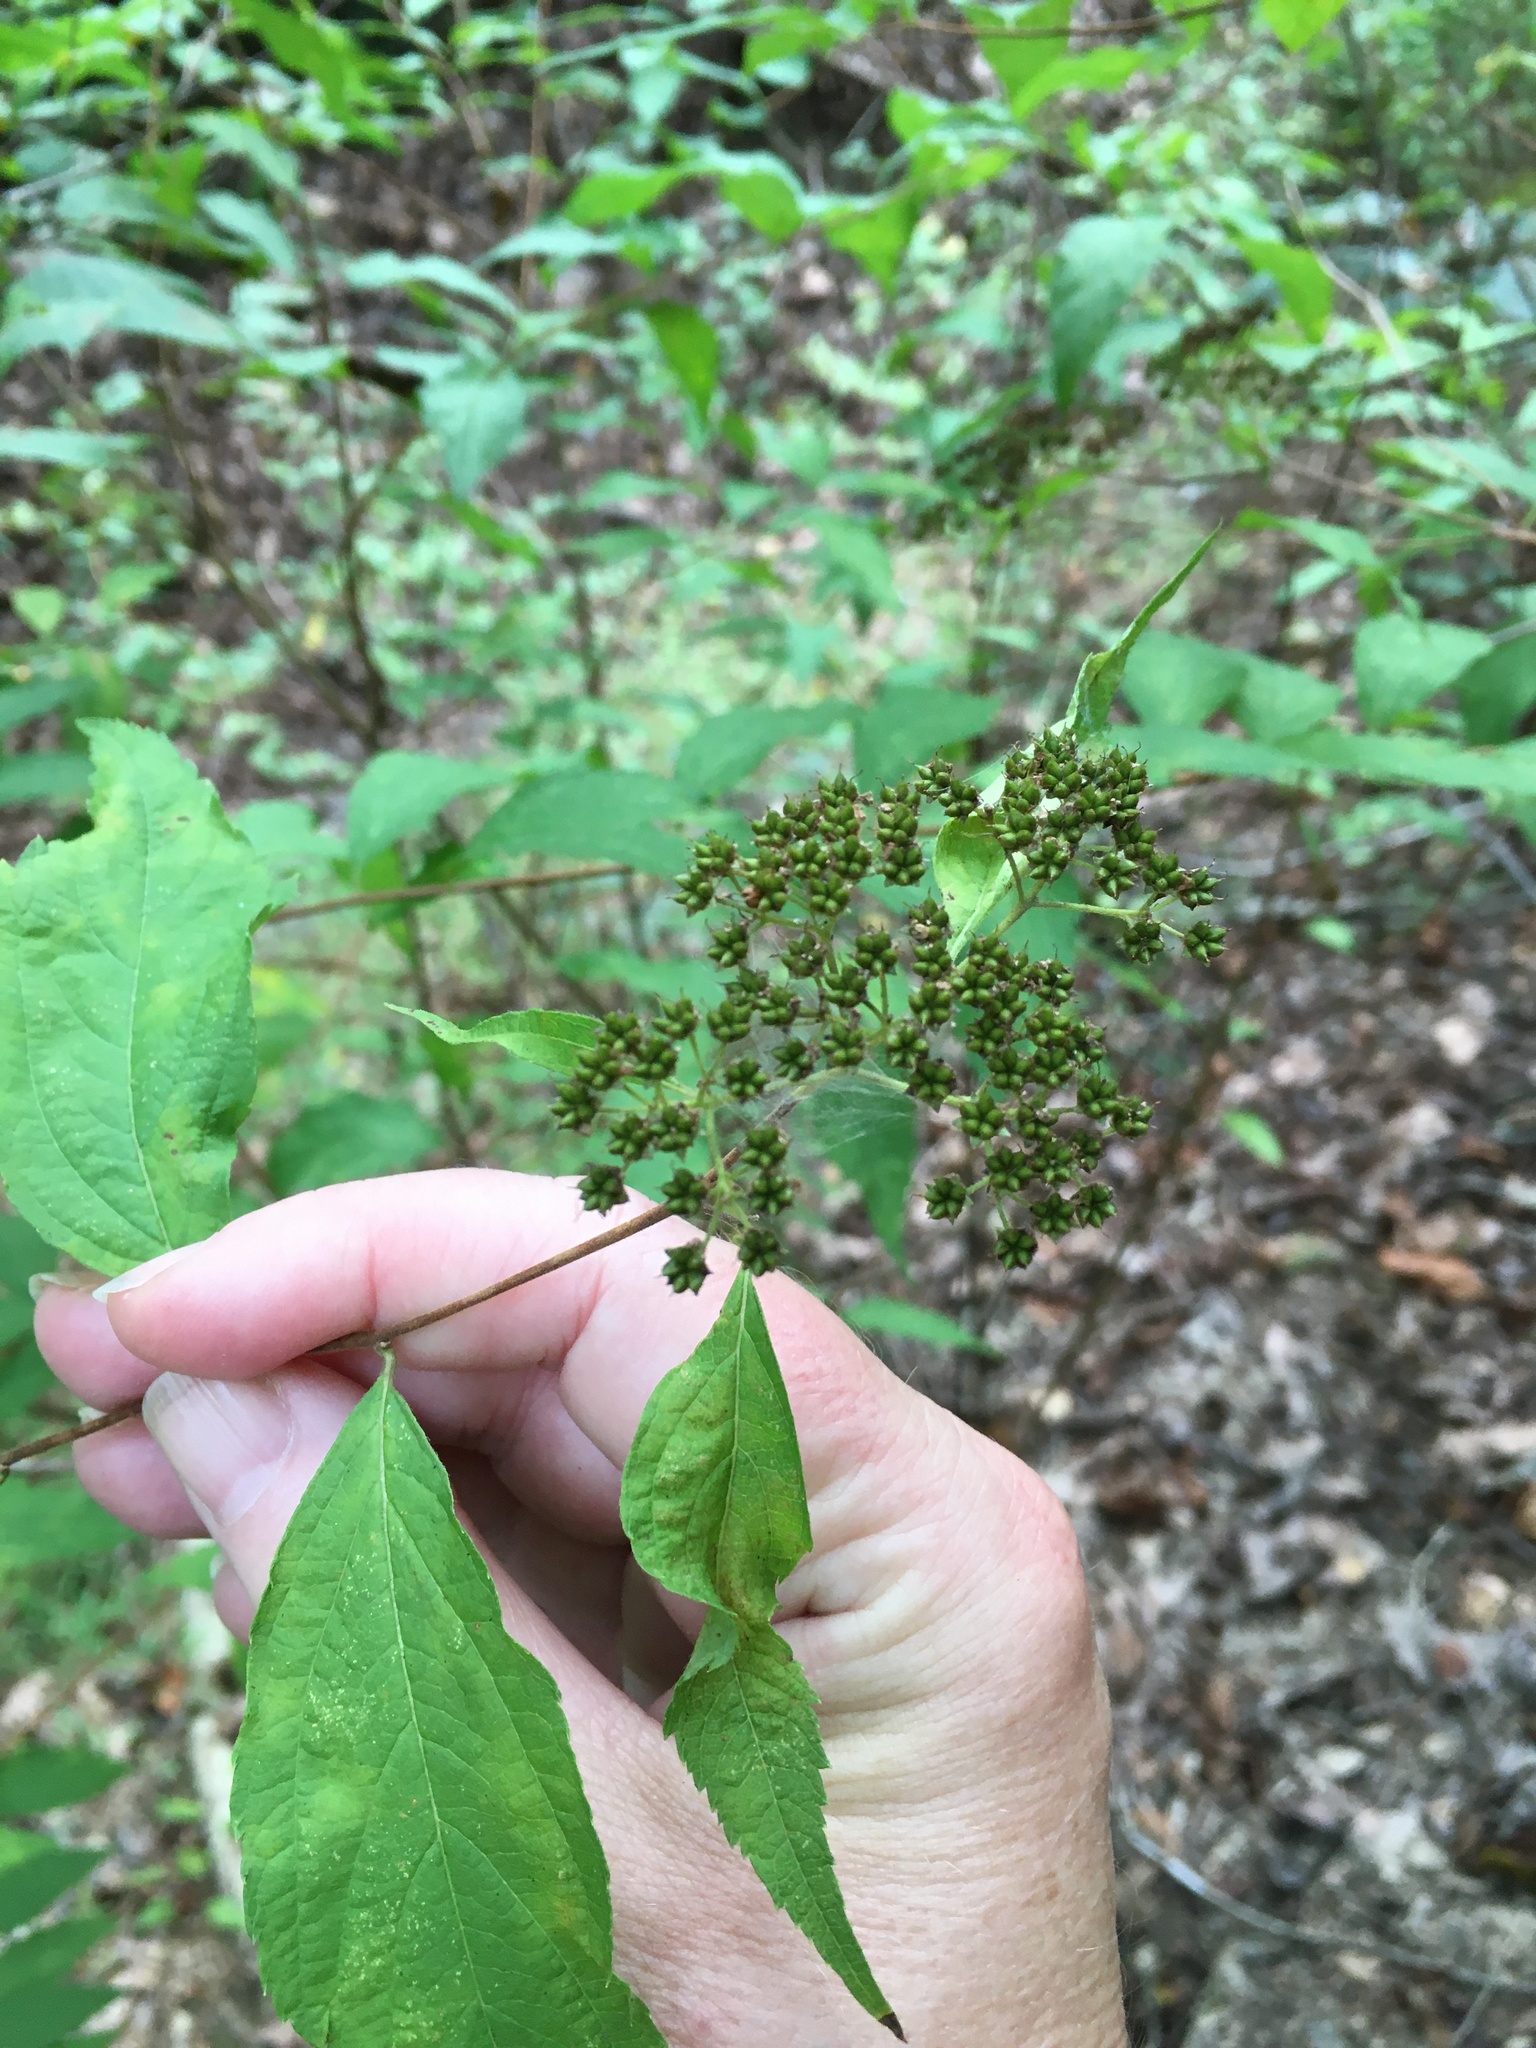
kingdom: Plantae
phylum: Tracheophyta
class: Magnoliopsida
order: Rosales
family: Rosaceae
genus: Spiraea
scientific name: Spiraea japonica
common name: Japanese spiraea
